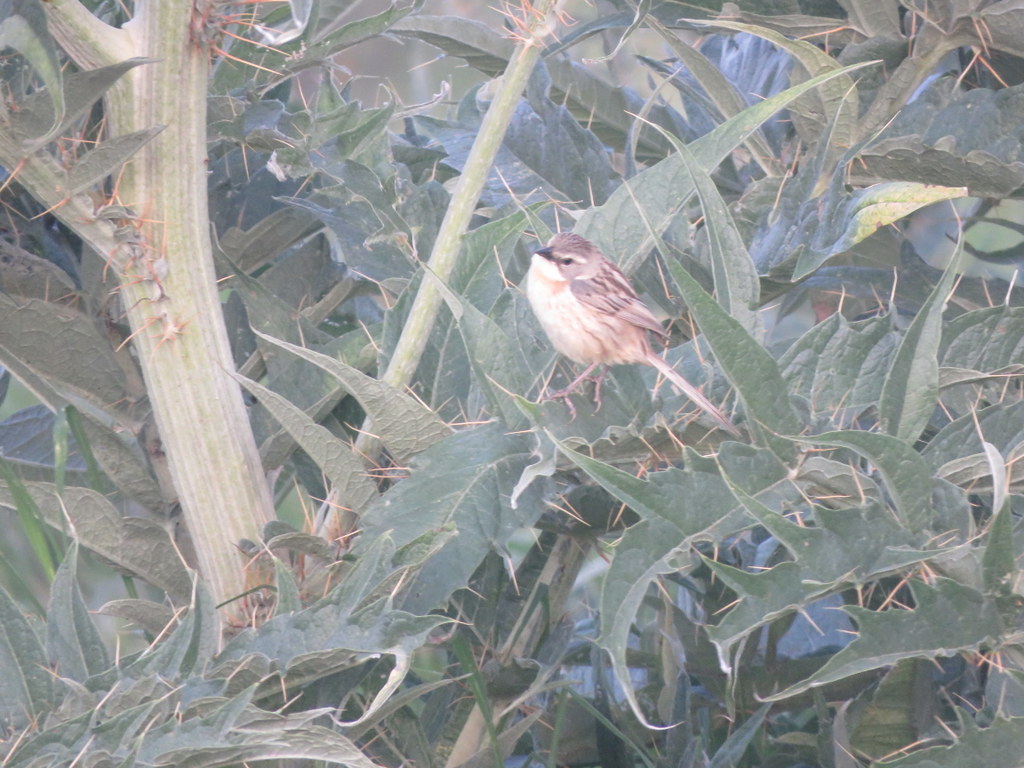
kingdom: Animalia
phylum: Chordata
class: Aves
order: Passeriformes
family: Thraupidae
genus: Donacospiza
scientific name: Donacospiza albifrons
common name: Long-tailed reed finch
